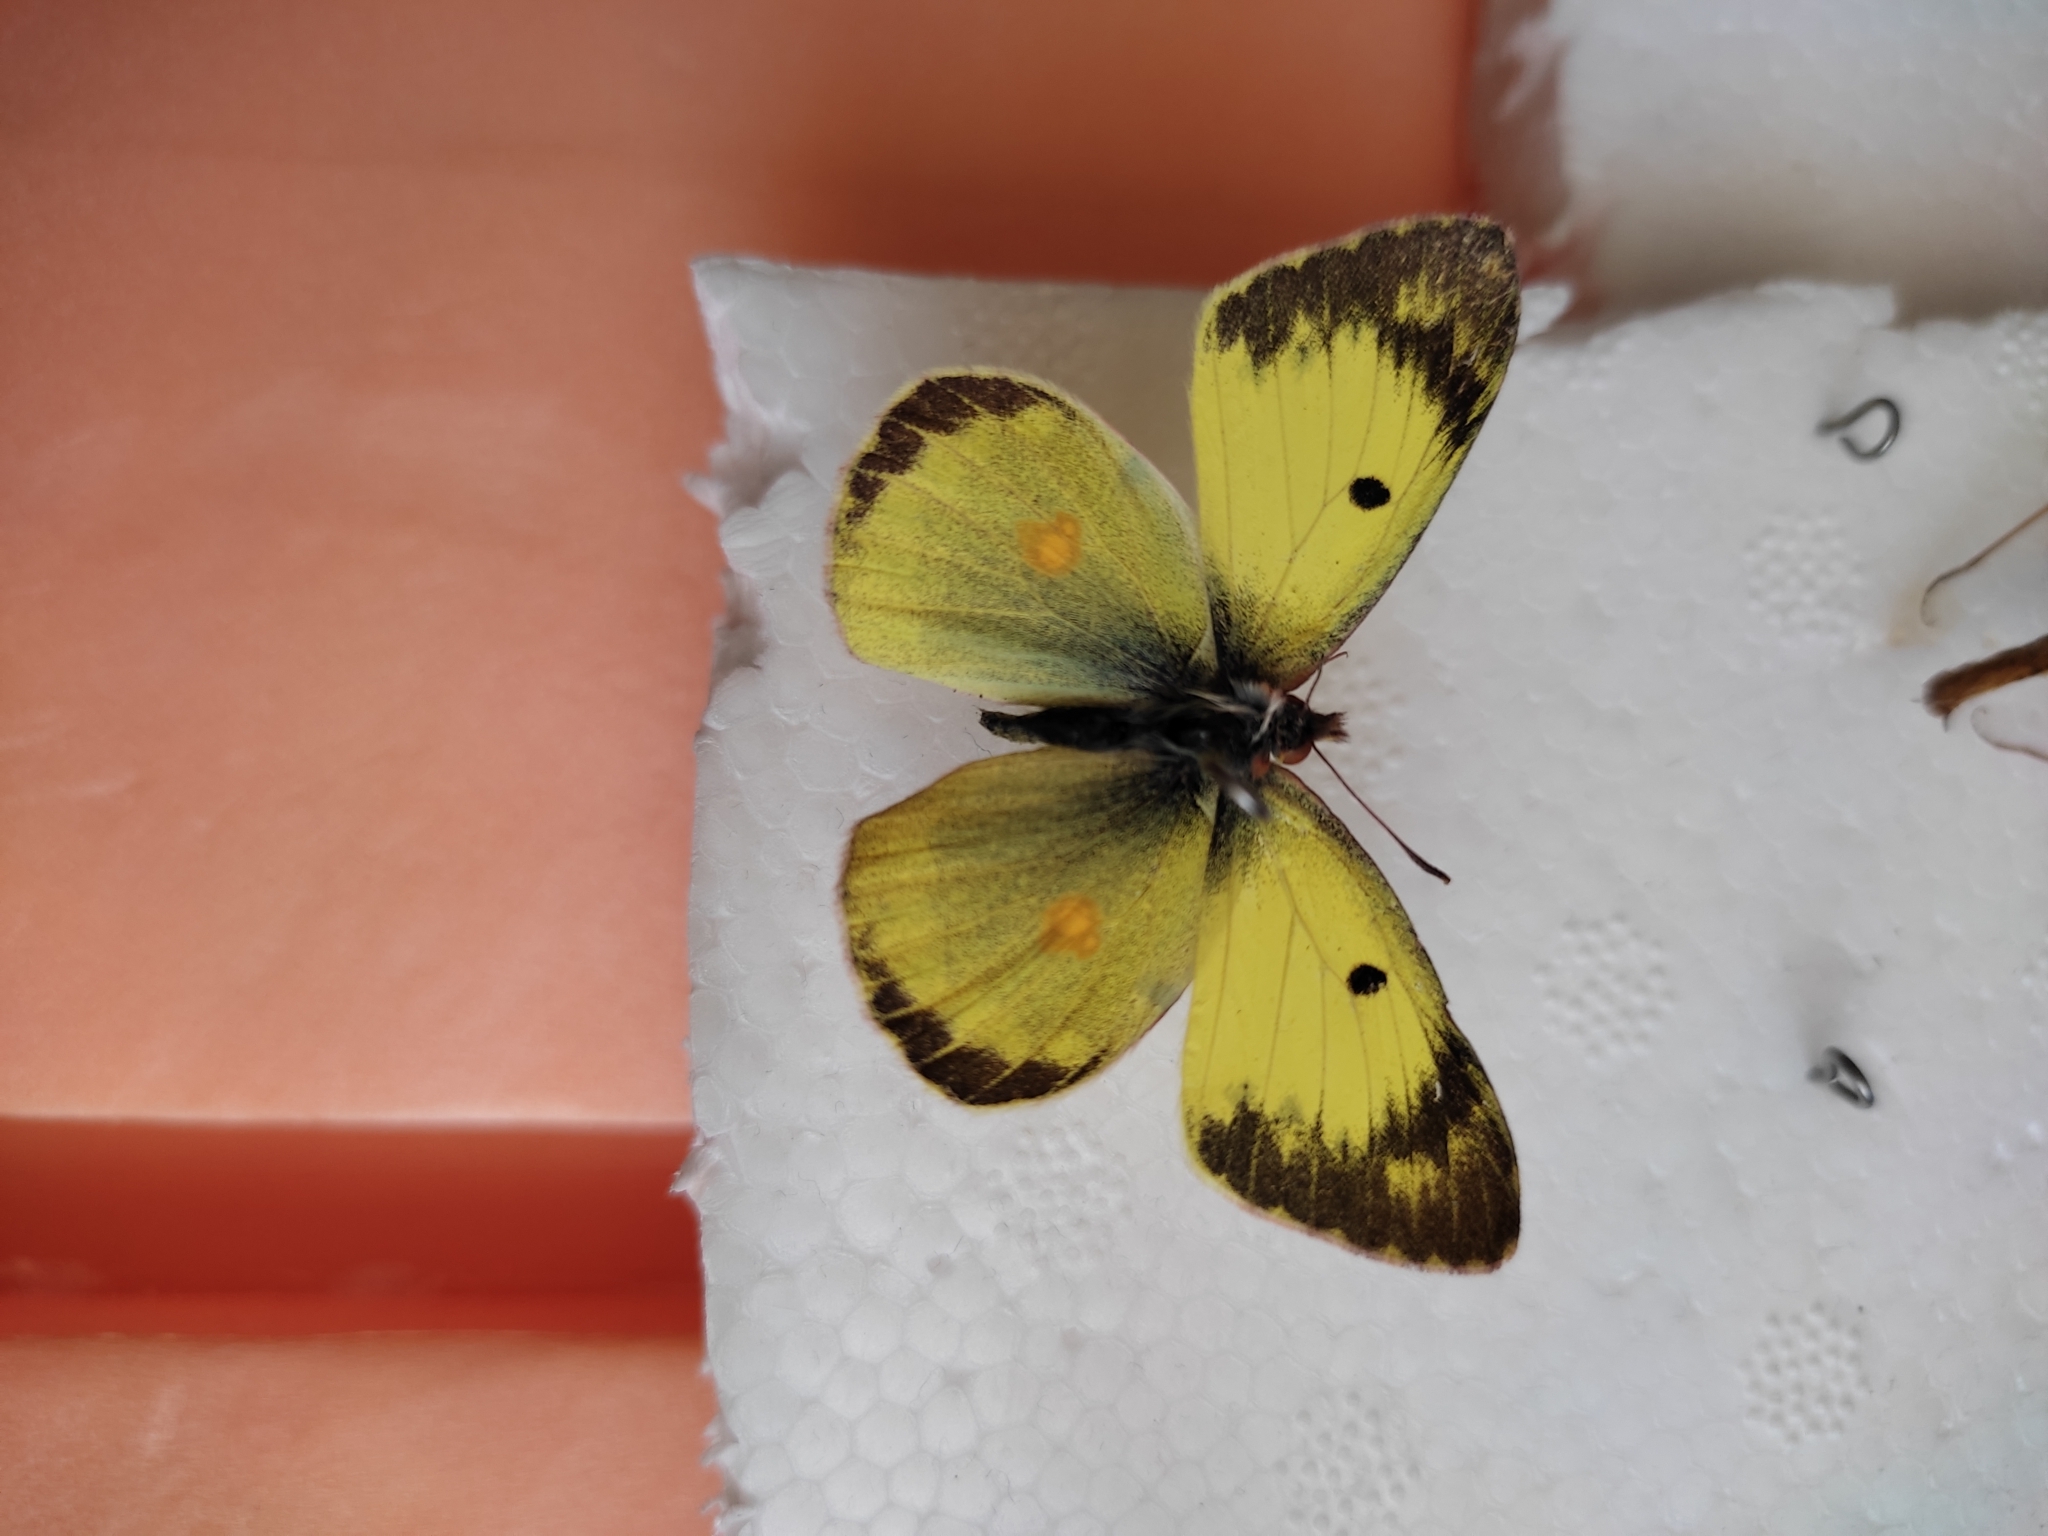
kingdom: Animalia
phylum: Arthropoda
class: Insecta
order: Lepidoptera
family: Pieridae
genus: Colias
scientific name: Colias erate
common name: Eastern pale clouded yellow
